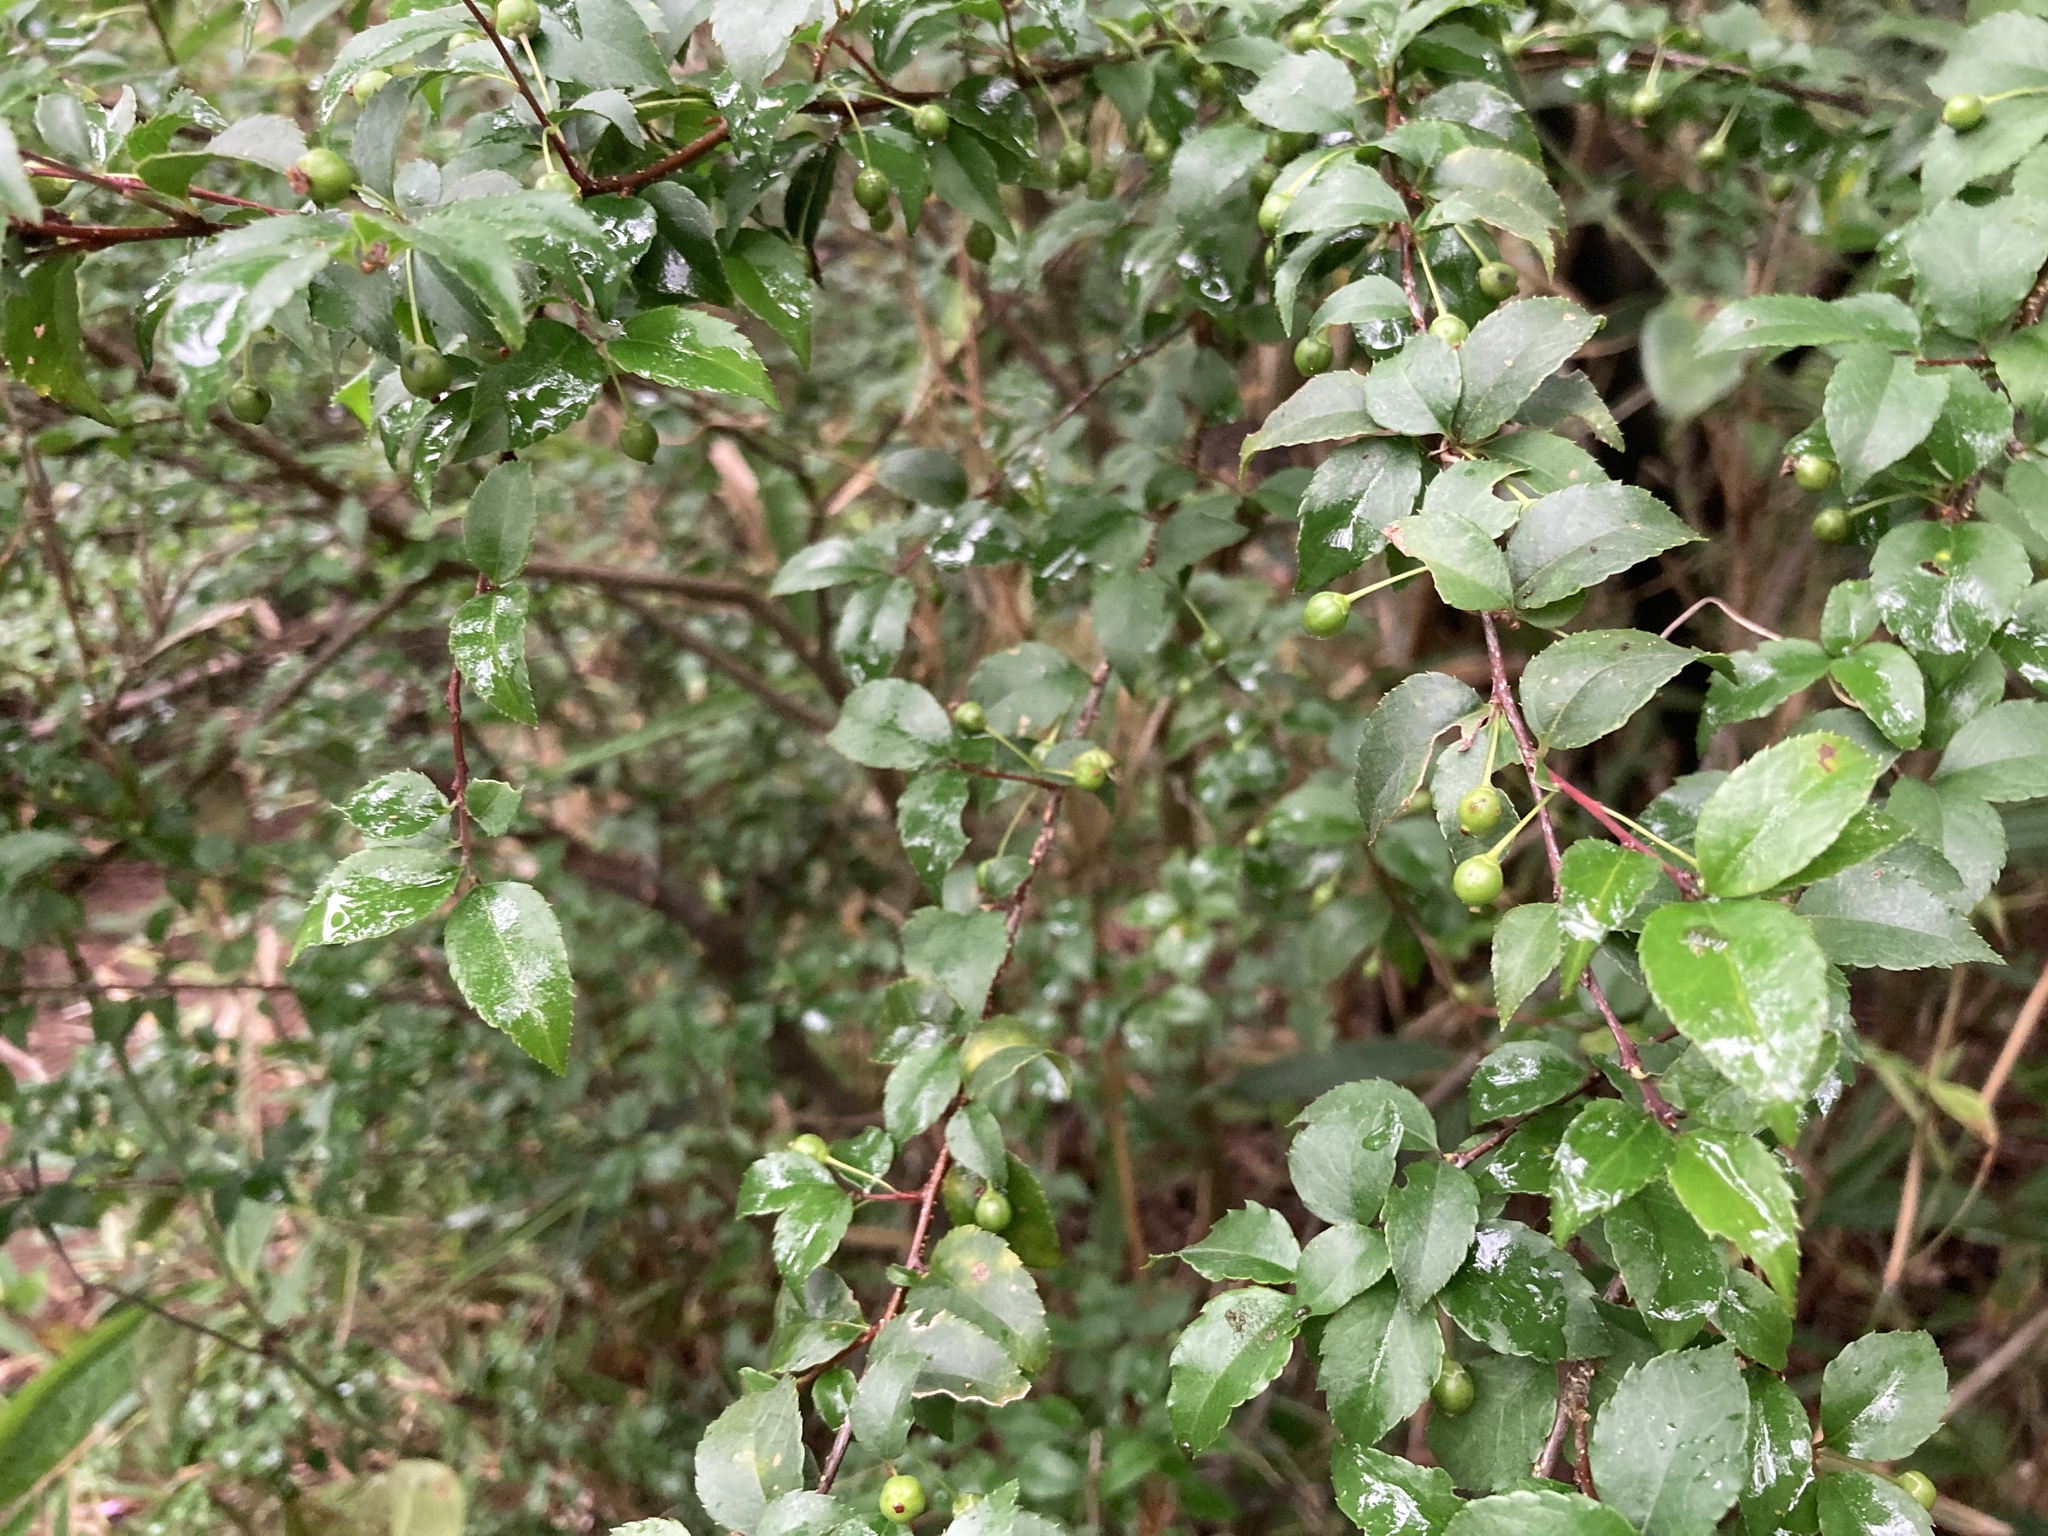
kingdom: Plantae
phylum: Tracheophyta
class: Magnoliopsida
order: Aquifoliales
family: Aquifoliaceae
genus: Ilex
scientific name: Ilex asprella
